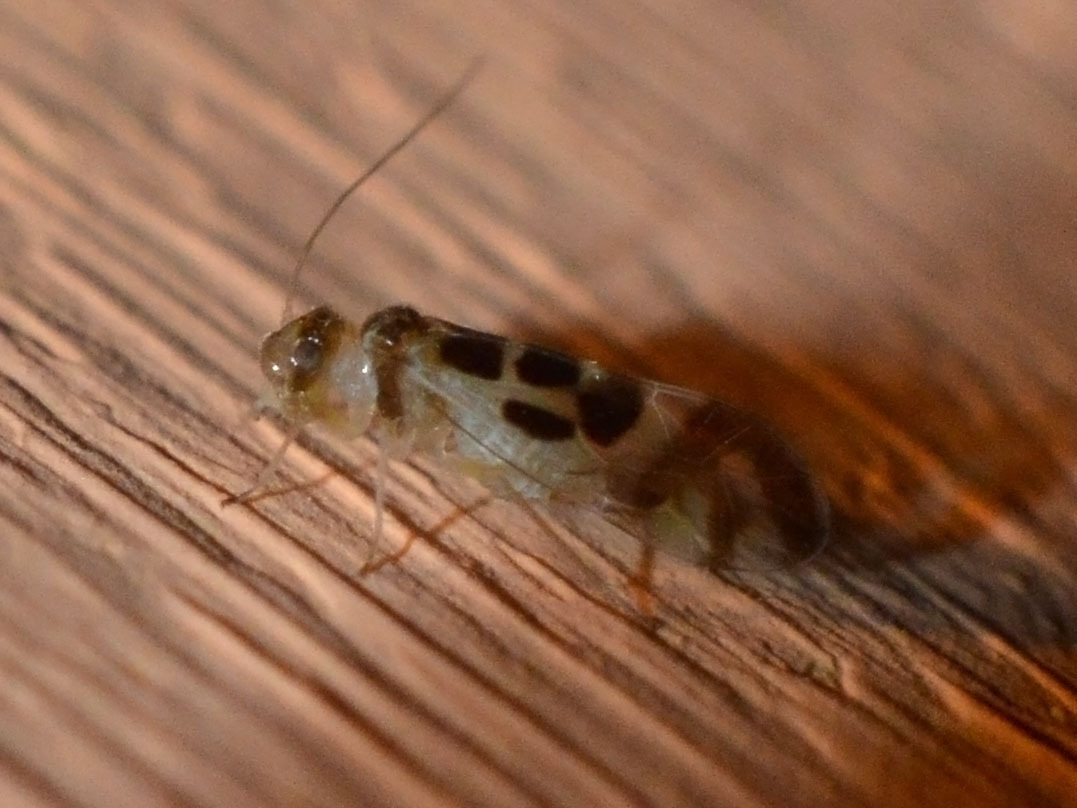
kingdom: Animalia
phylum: Arthropoda
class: Insecta
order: Psocodea
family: Stenopsocidae
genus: Graphopsocus
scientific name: Graphopsocus cruciatus
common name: Lizard bark louse
